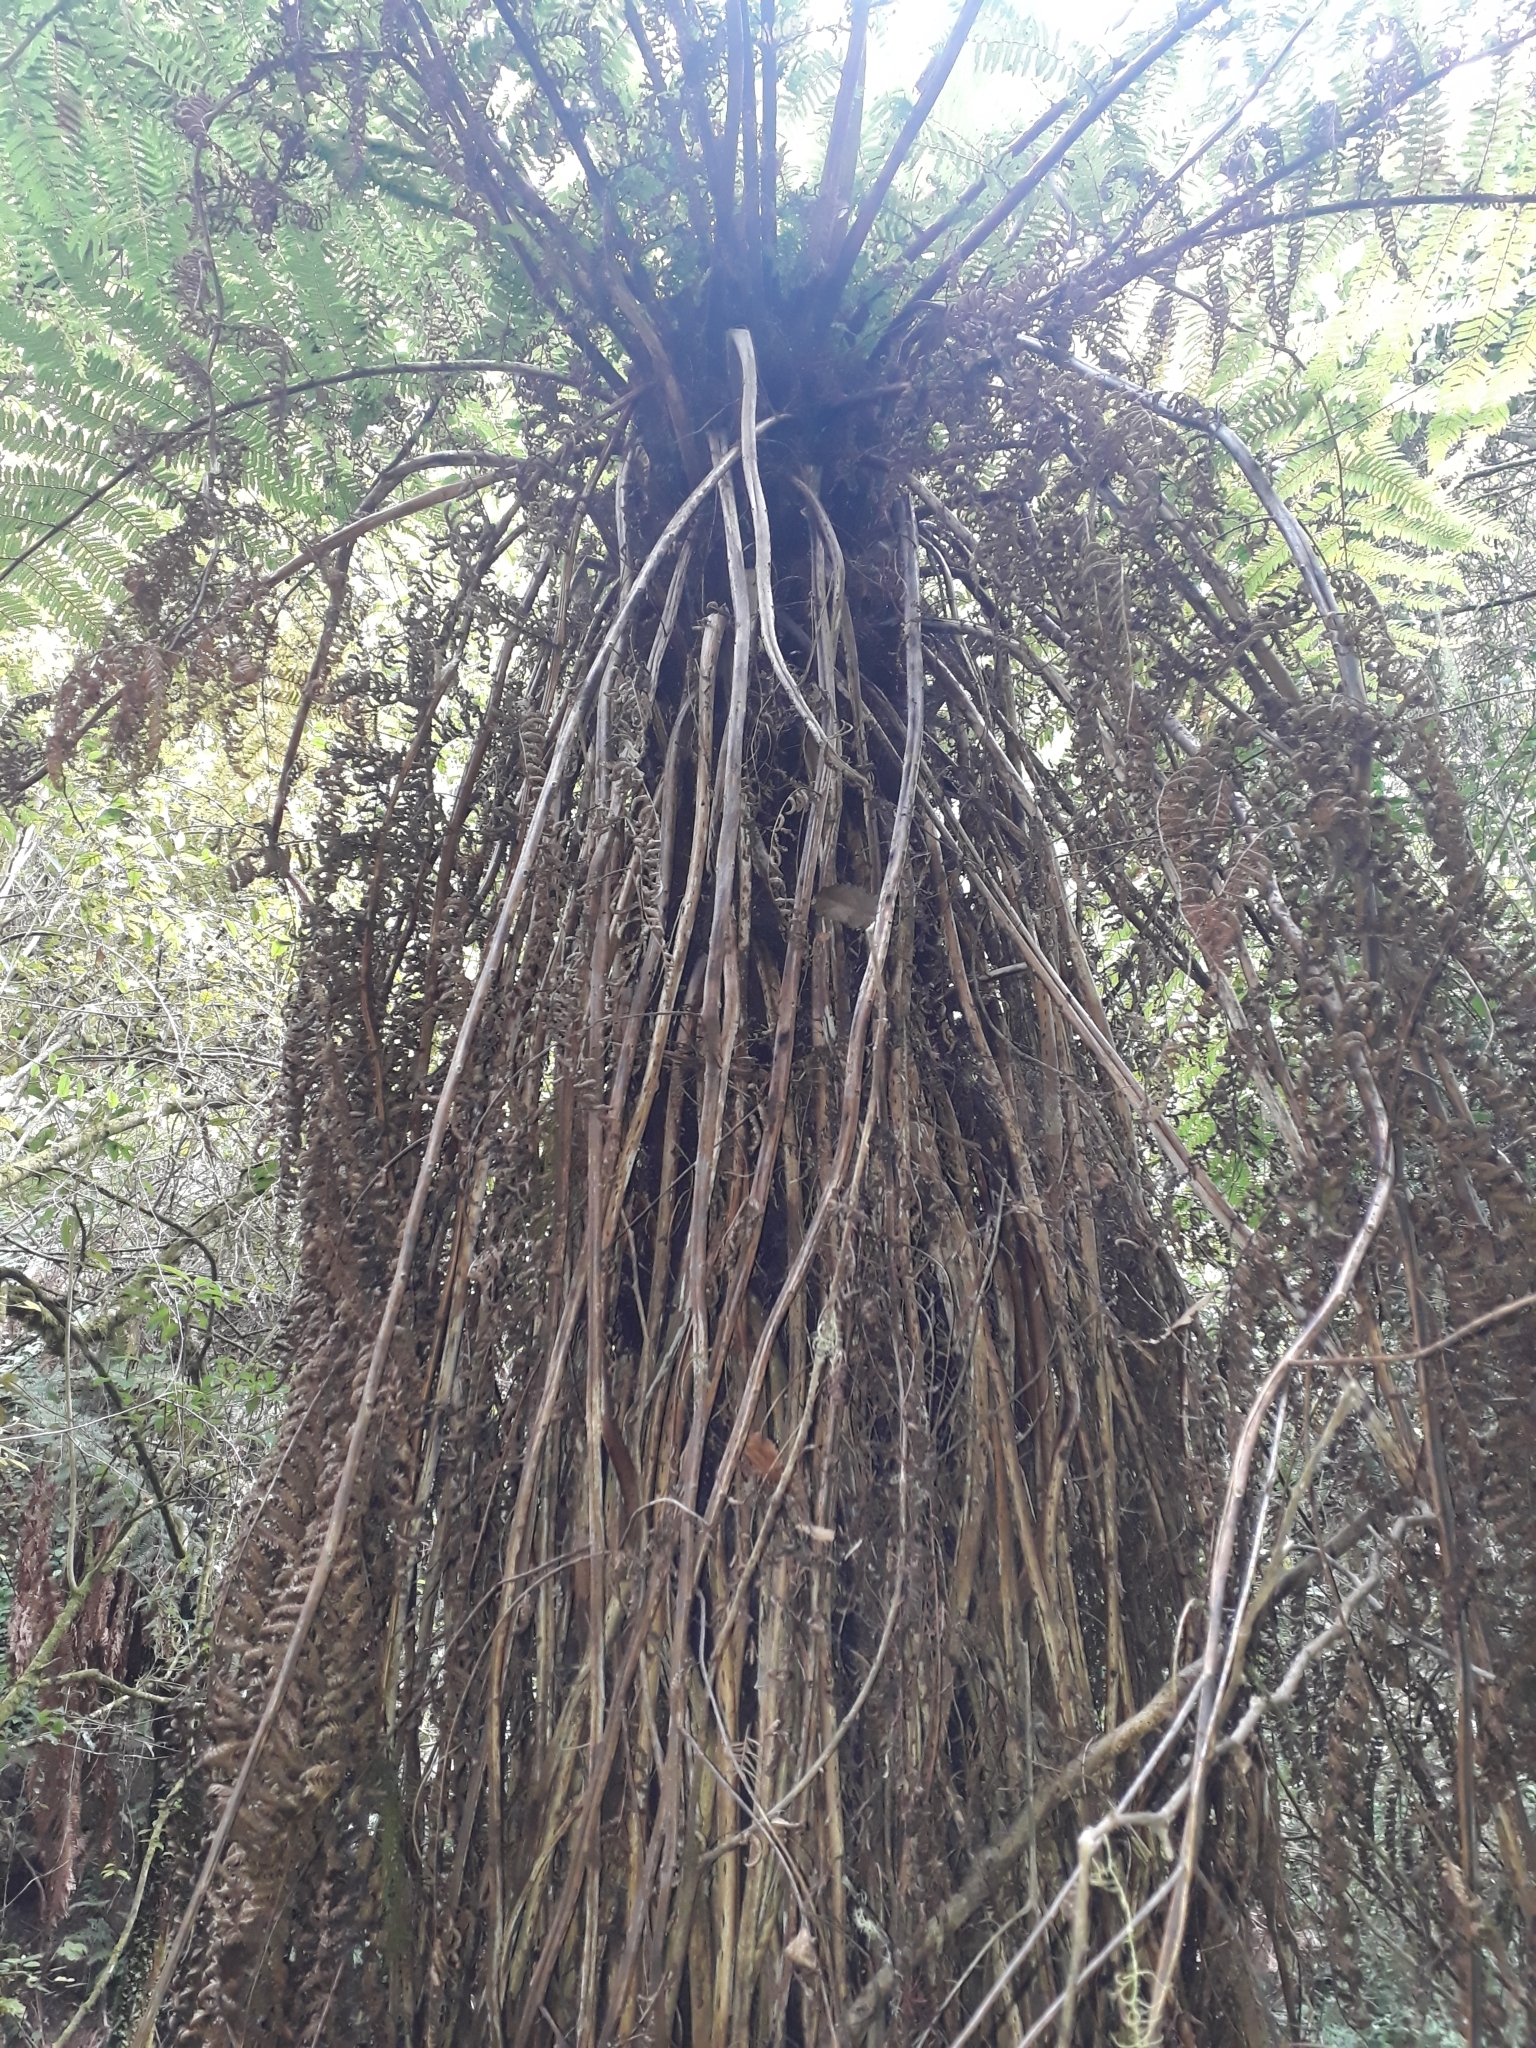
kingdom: Plantae
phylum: Tracheophyta
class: Polypodiopsida
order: Cyatheales
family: Cyatheaceae
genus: Alsophila
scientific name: Alsophila smithii
